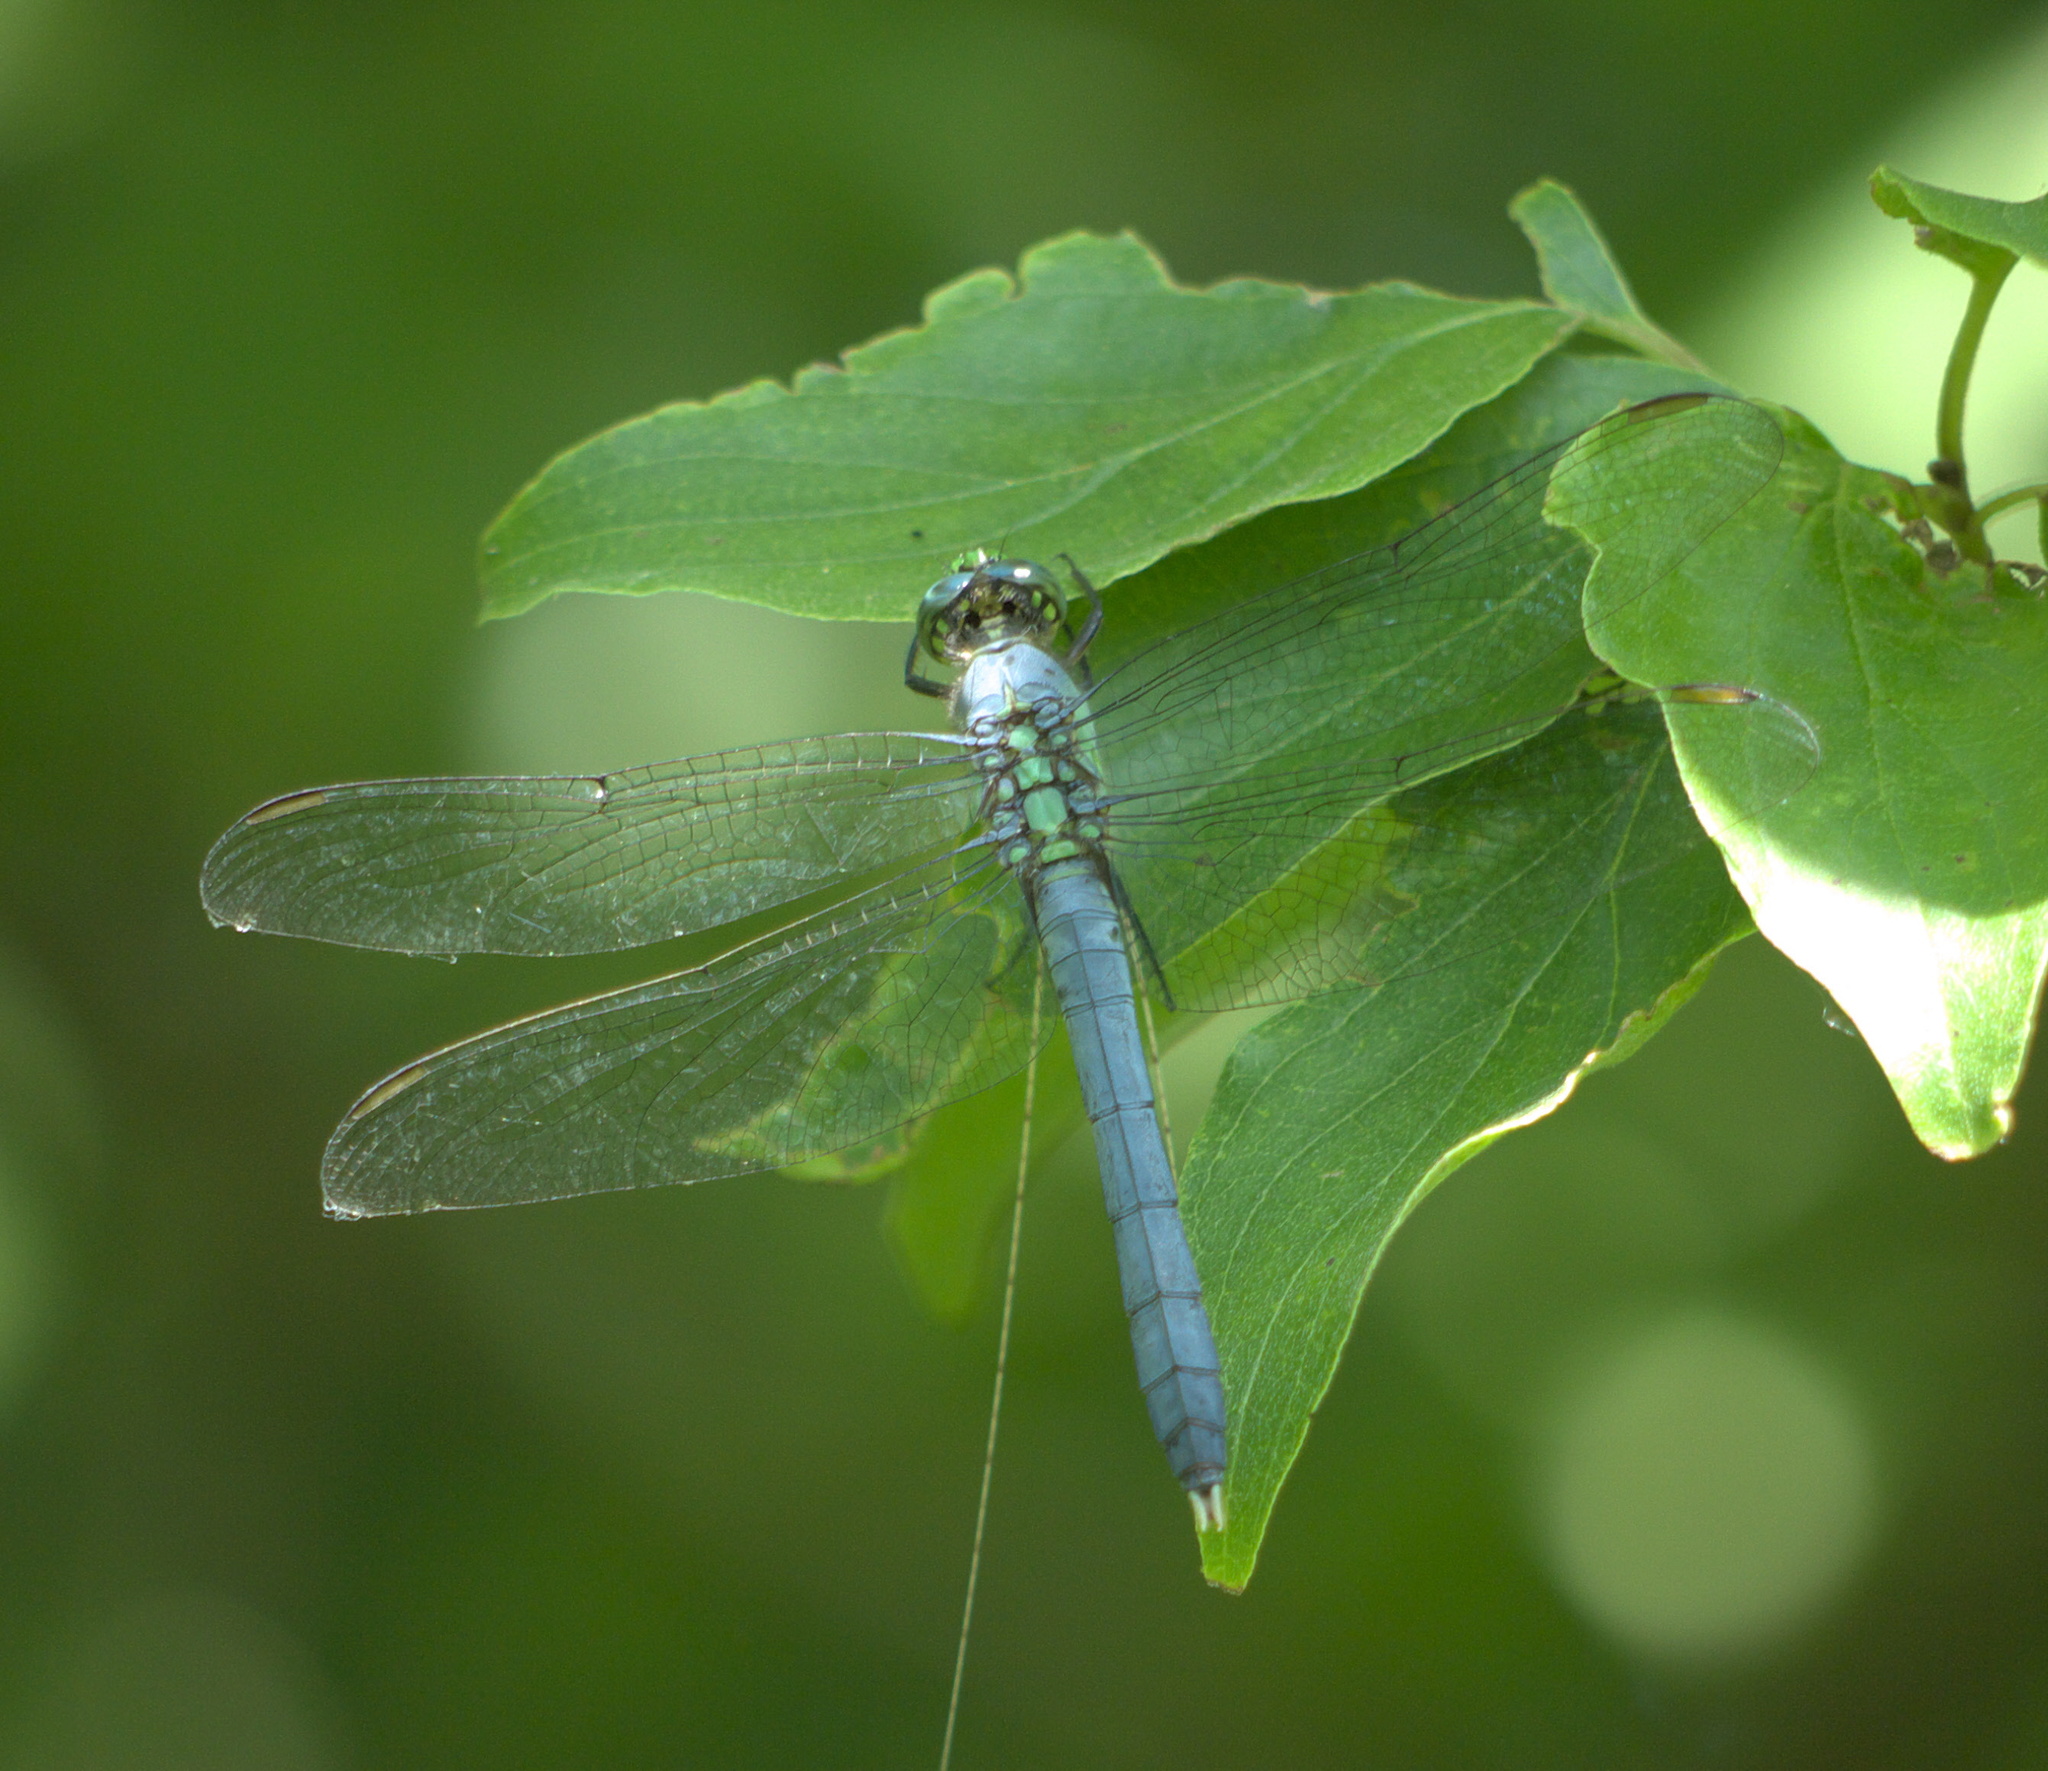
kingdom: Animalia
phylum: Arthropoda
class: Insecta
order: Odonata
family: Libellulidae
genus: Erythemis
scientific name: Erythemis simplicicollis
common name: Eastern pondhawk
